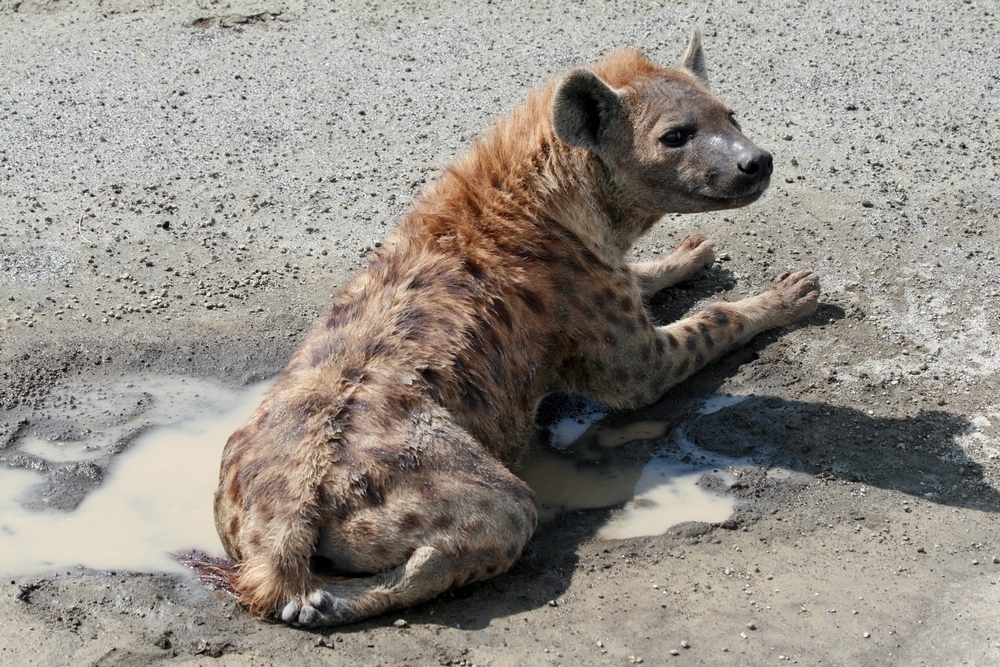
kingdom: Animalia
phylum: Chordata
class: Mammalia
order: Carnivora
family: Hyaenidae
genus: Crocuta
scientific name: Crocuta crocuta
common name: Spotted hyaena
